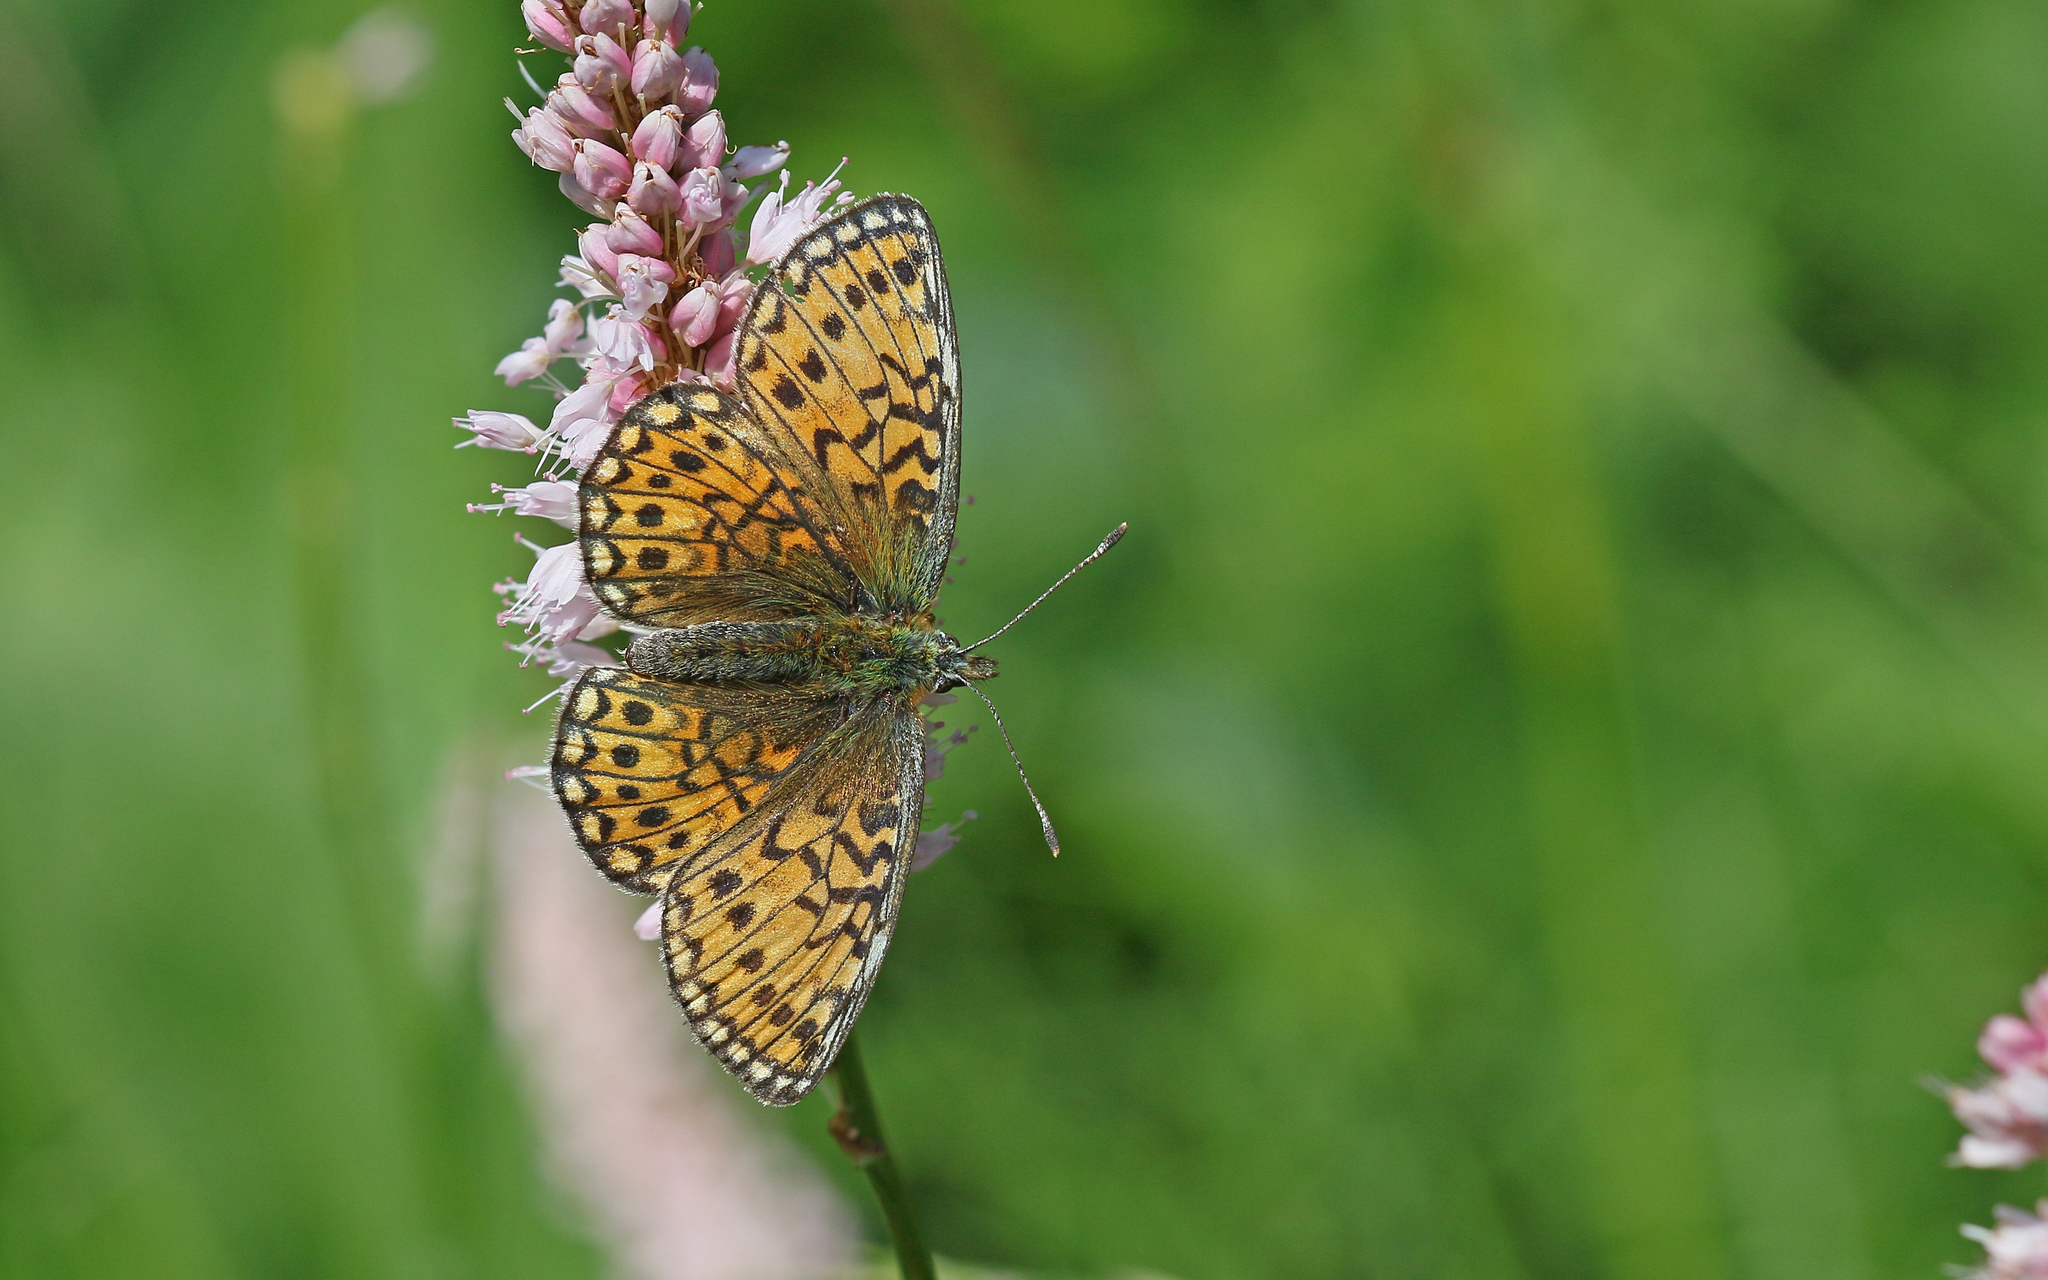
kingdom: Animalia
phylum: Arthropoda
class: Insecta
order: Lepidoptera
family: Nymphalidae
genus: Boloria
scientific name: Boloria eunomia
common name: Bog fritillary
